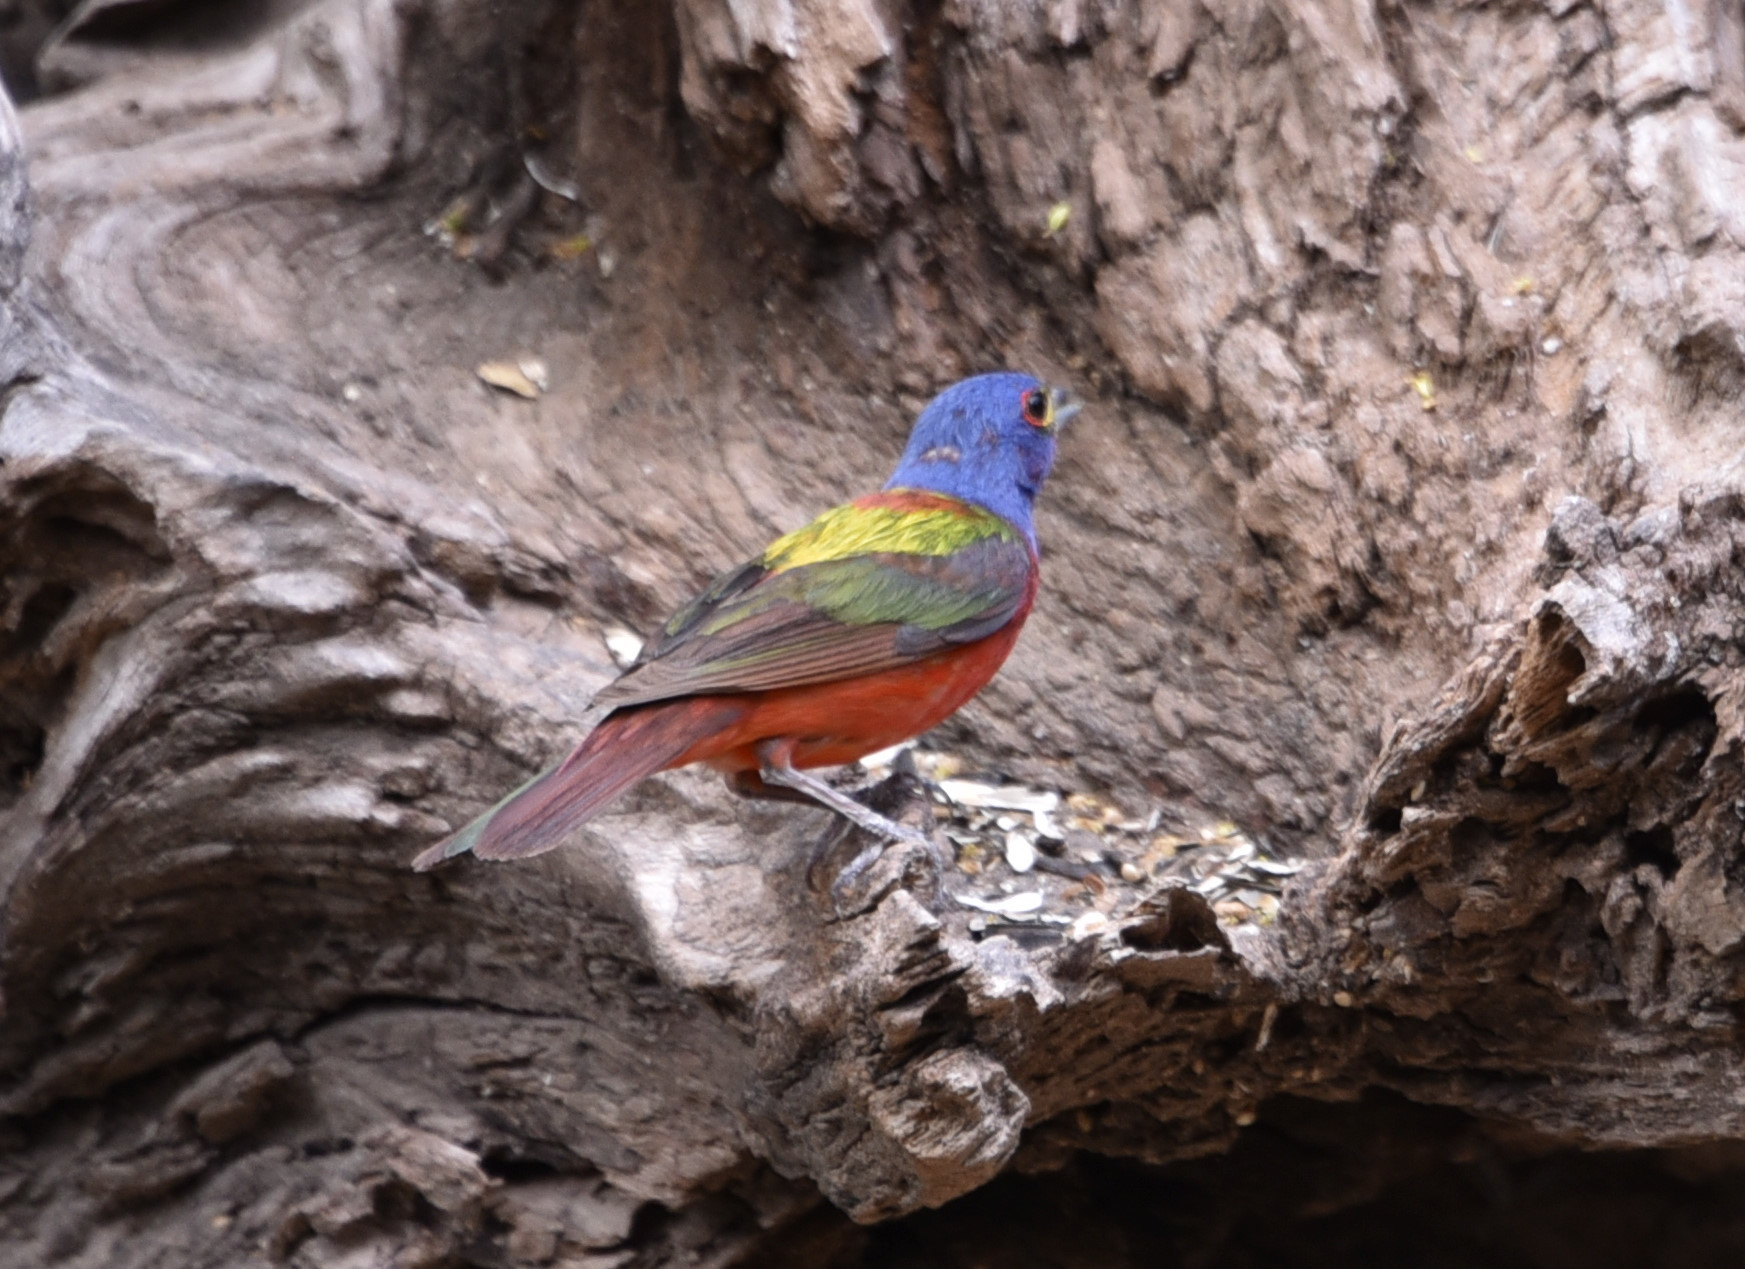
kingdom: Animalia
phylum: Chordata
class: Aves
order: Passeriformes
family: Cardinalidae
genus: Passerina
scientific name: Passerina ciris
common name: Painted bunting
